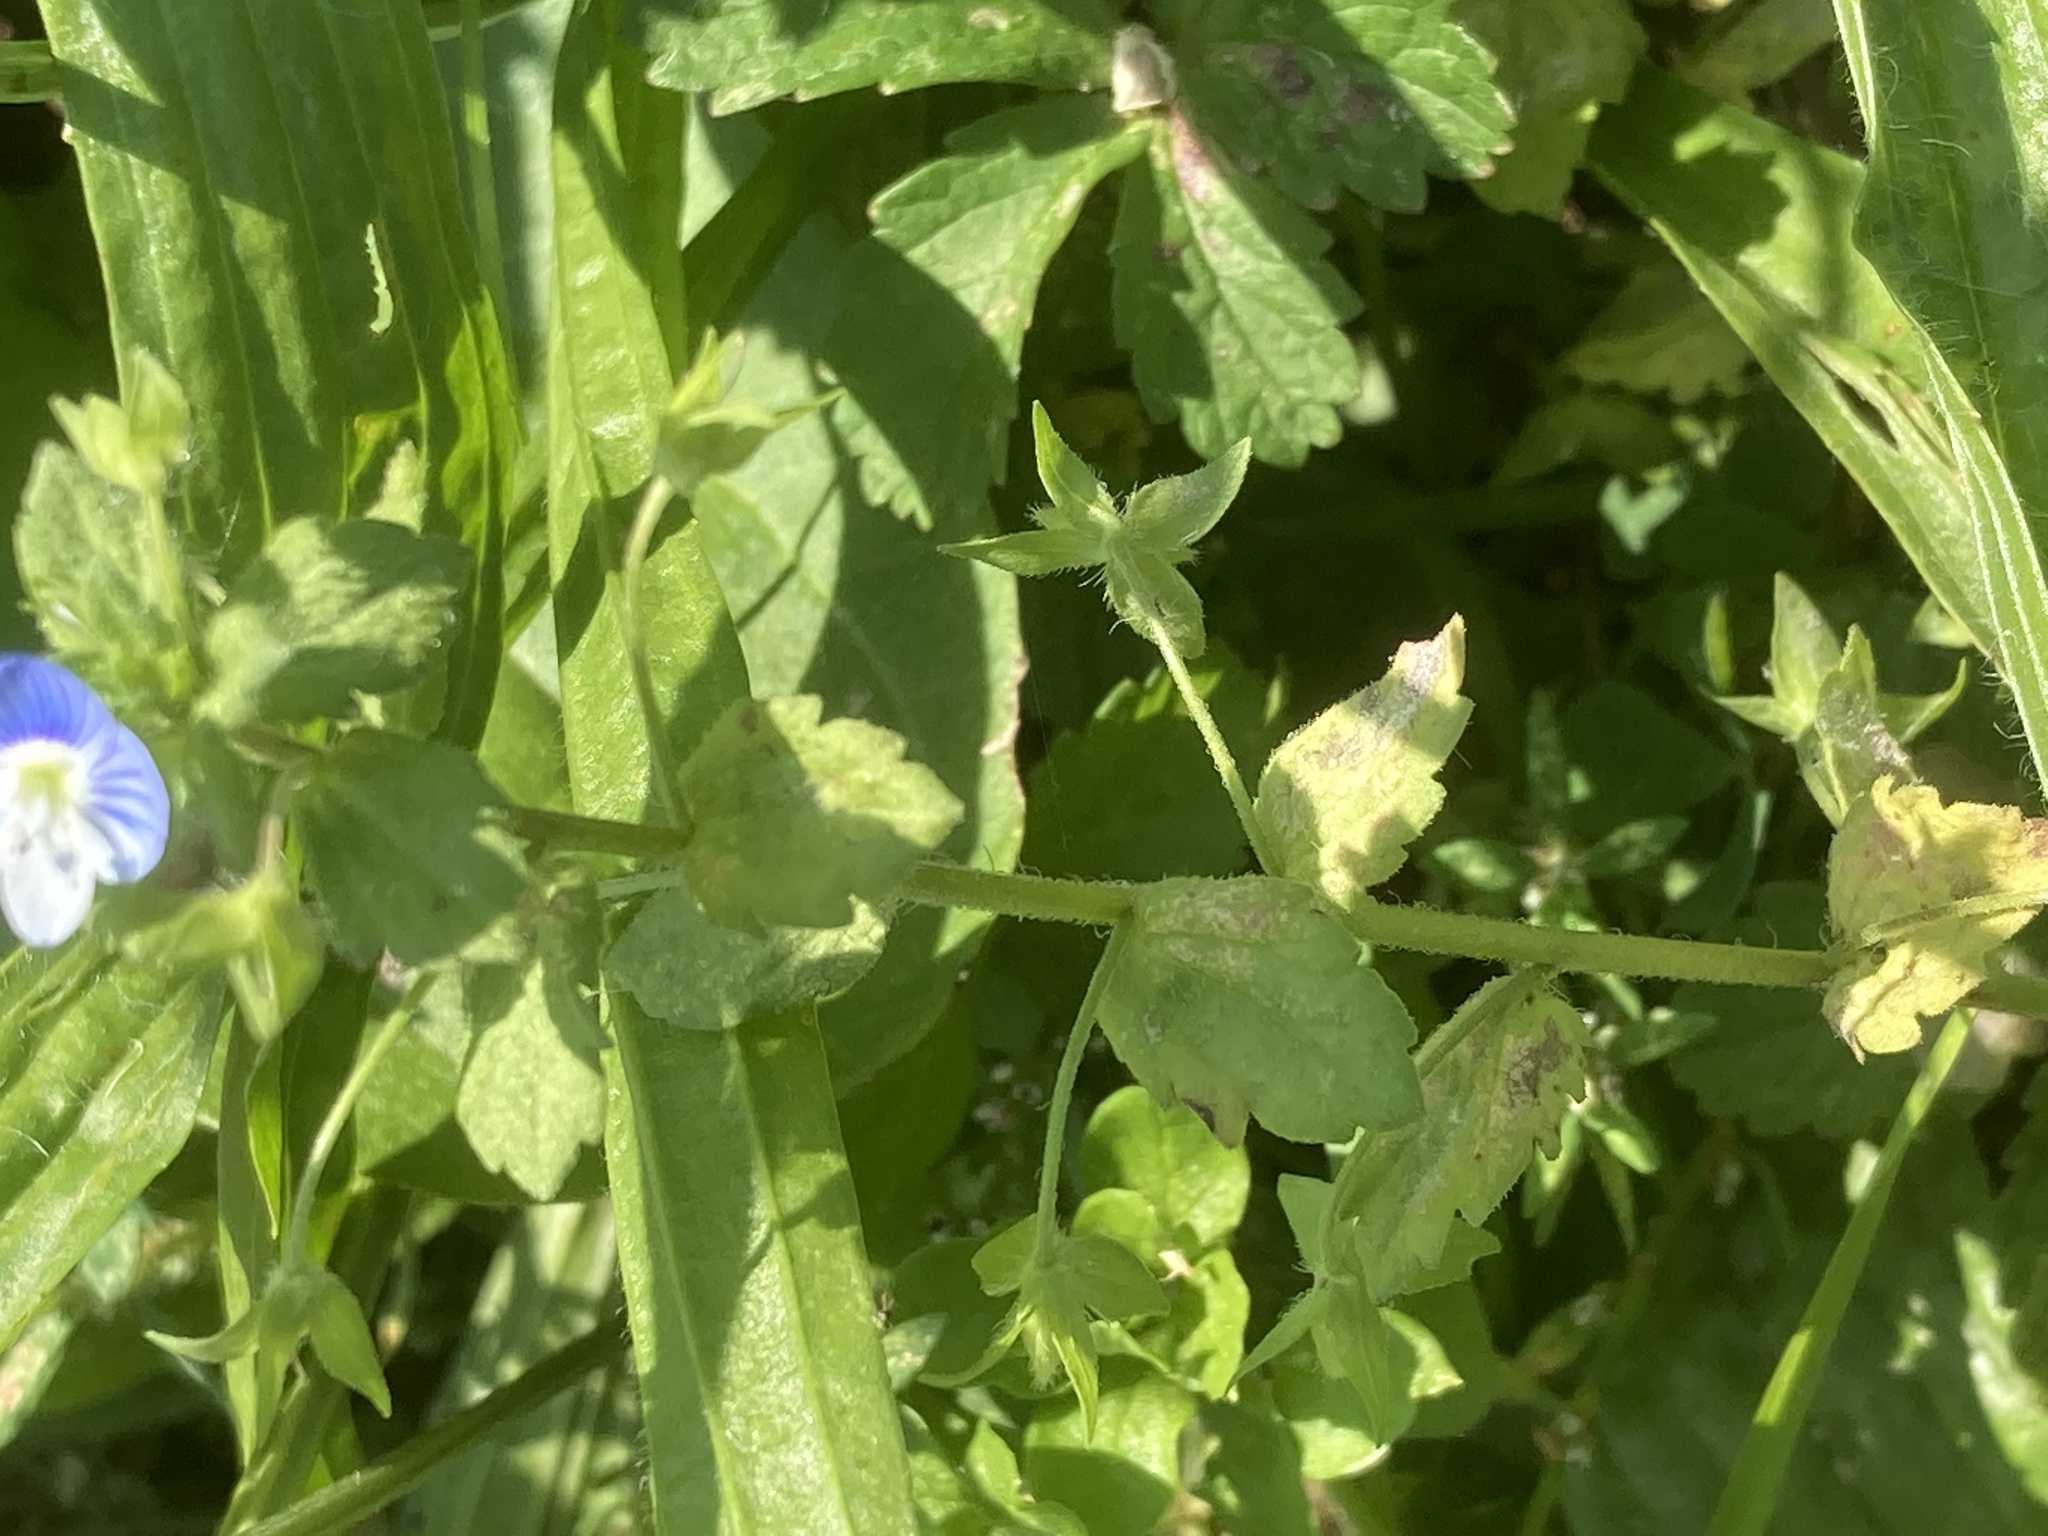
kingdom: Plantae
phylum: Tracheophyta
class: Magnoliopsida
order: Lamiales
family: Plantaginaceae
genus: Veronica
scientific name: Veronica persica
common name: Common field-speedwell
